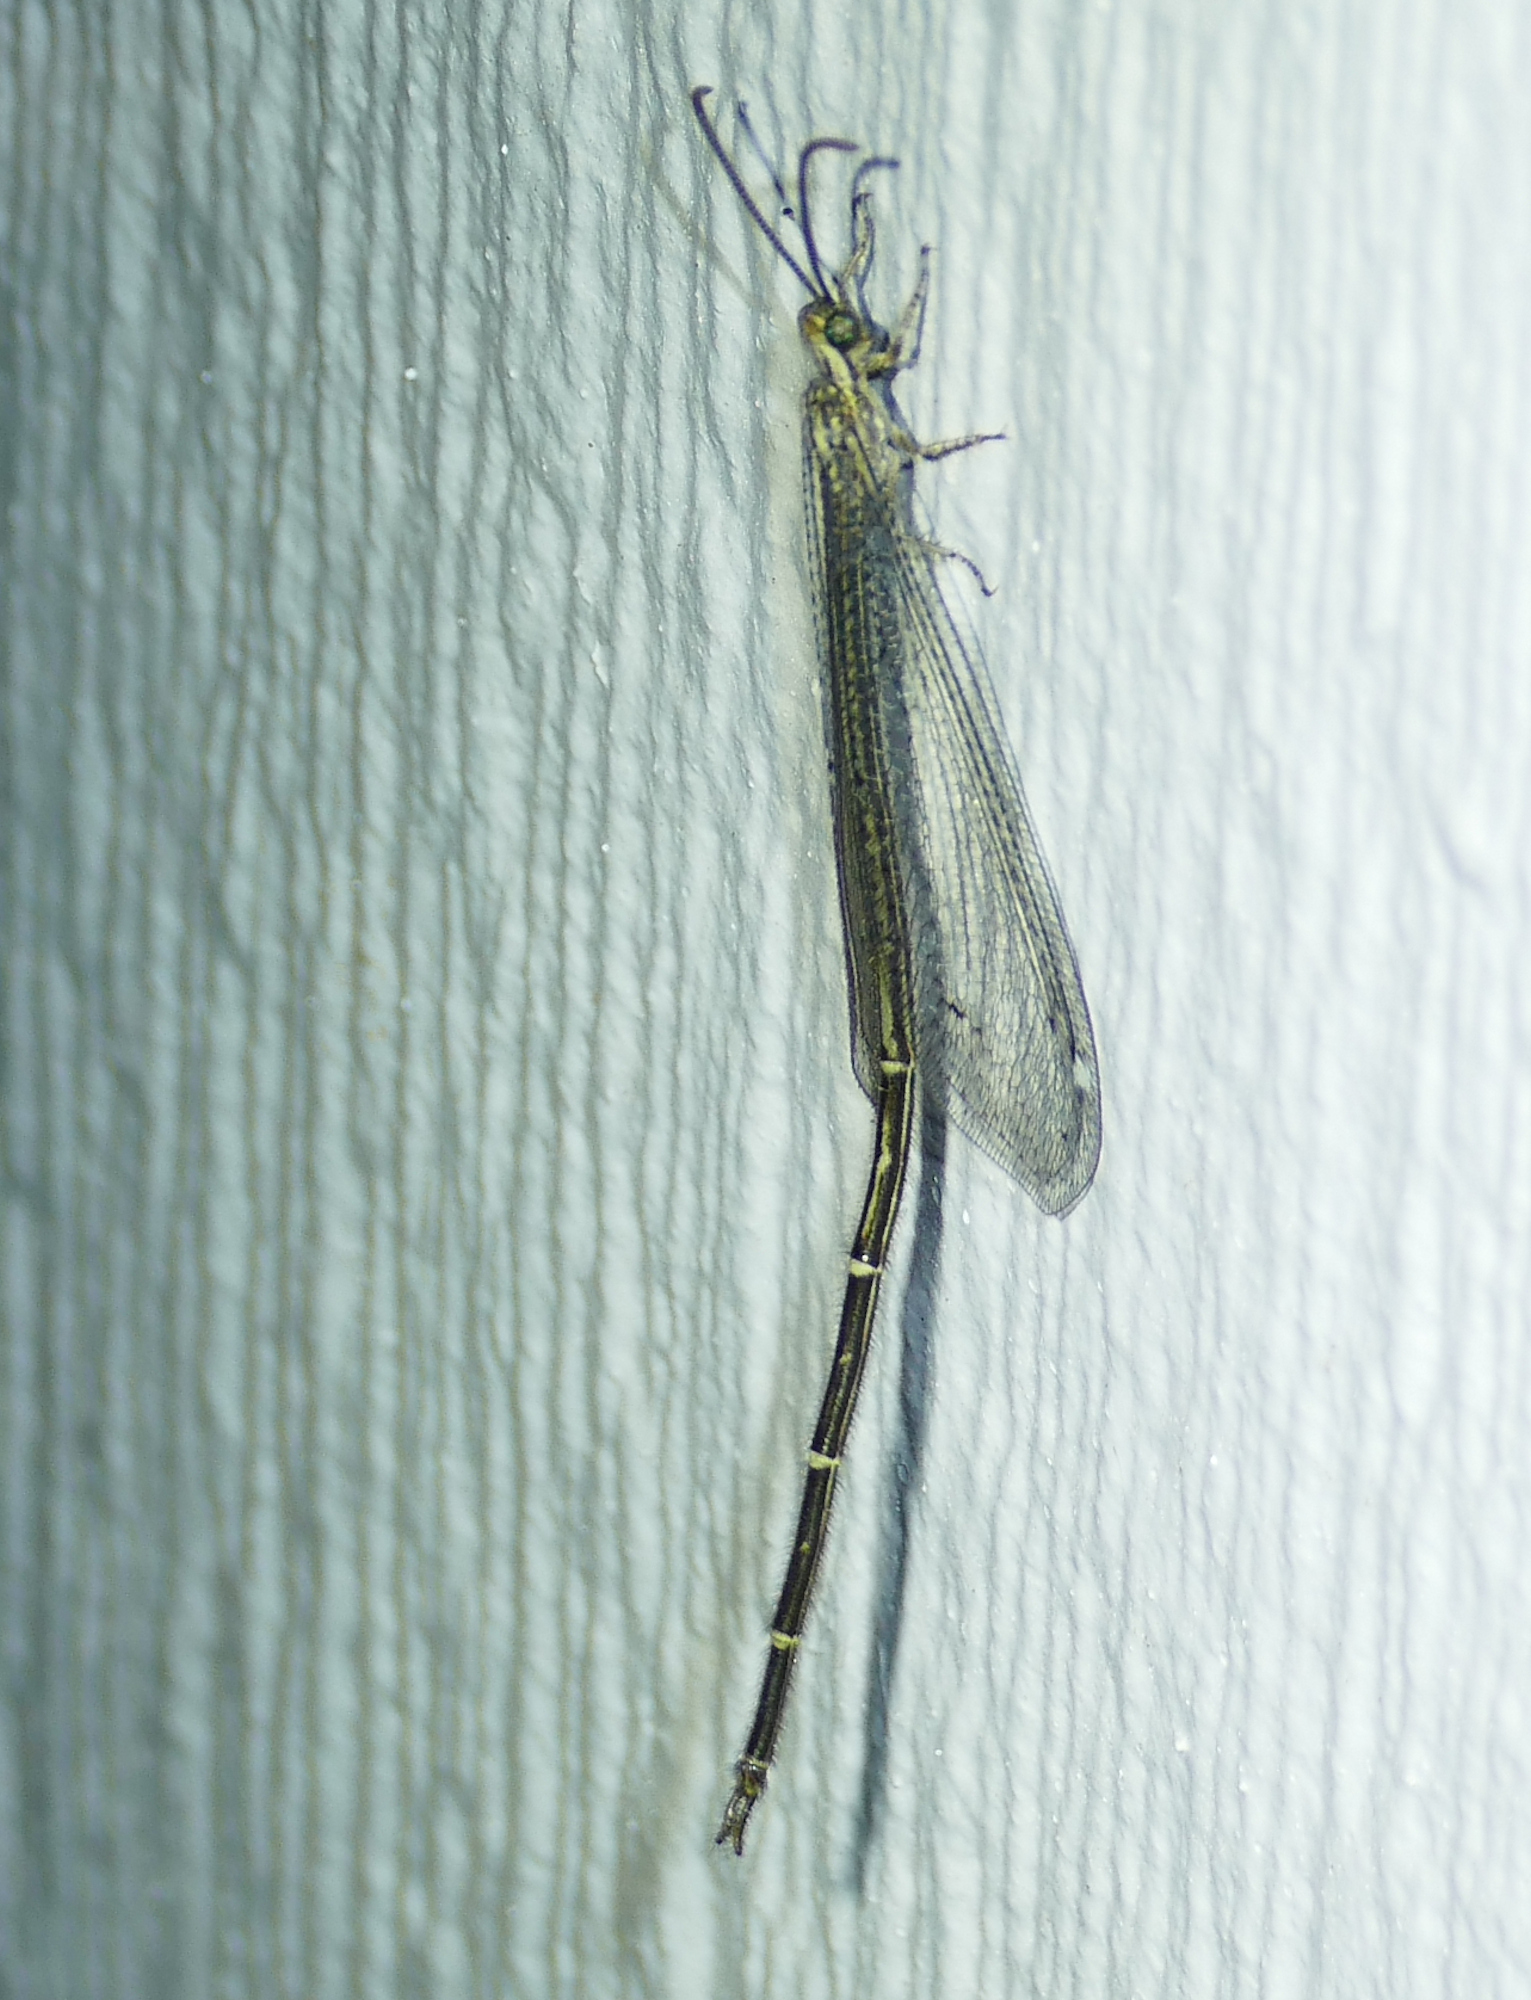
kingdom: Animalia
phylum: Arthropoda
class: Insecta
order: Neuroptera
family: Myrmeleontidae
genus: Brachynemurus
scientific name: Brachynemurus hubbardii
